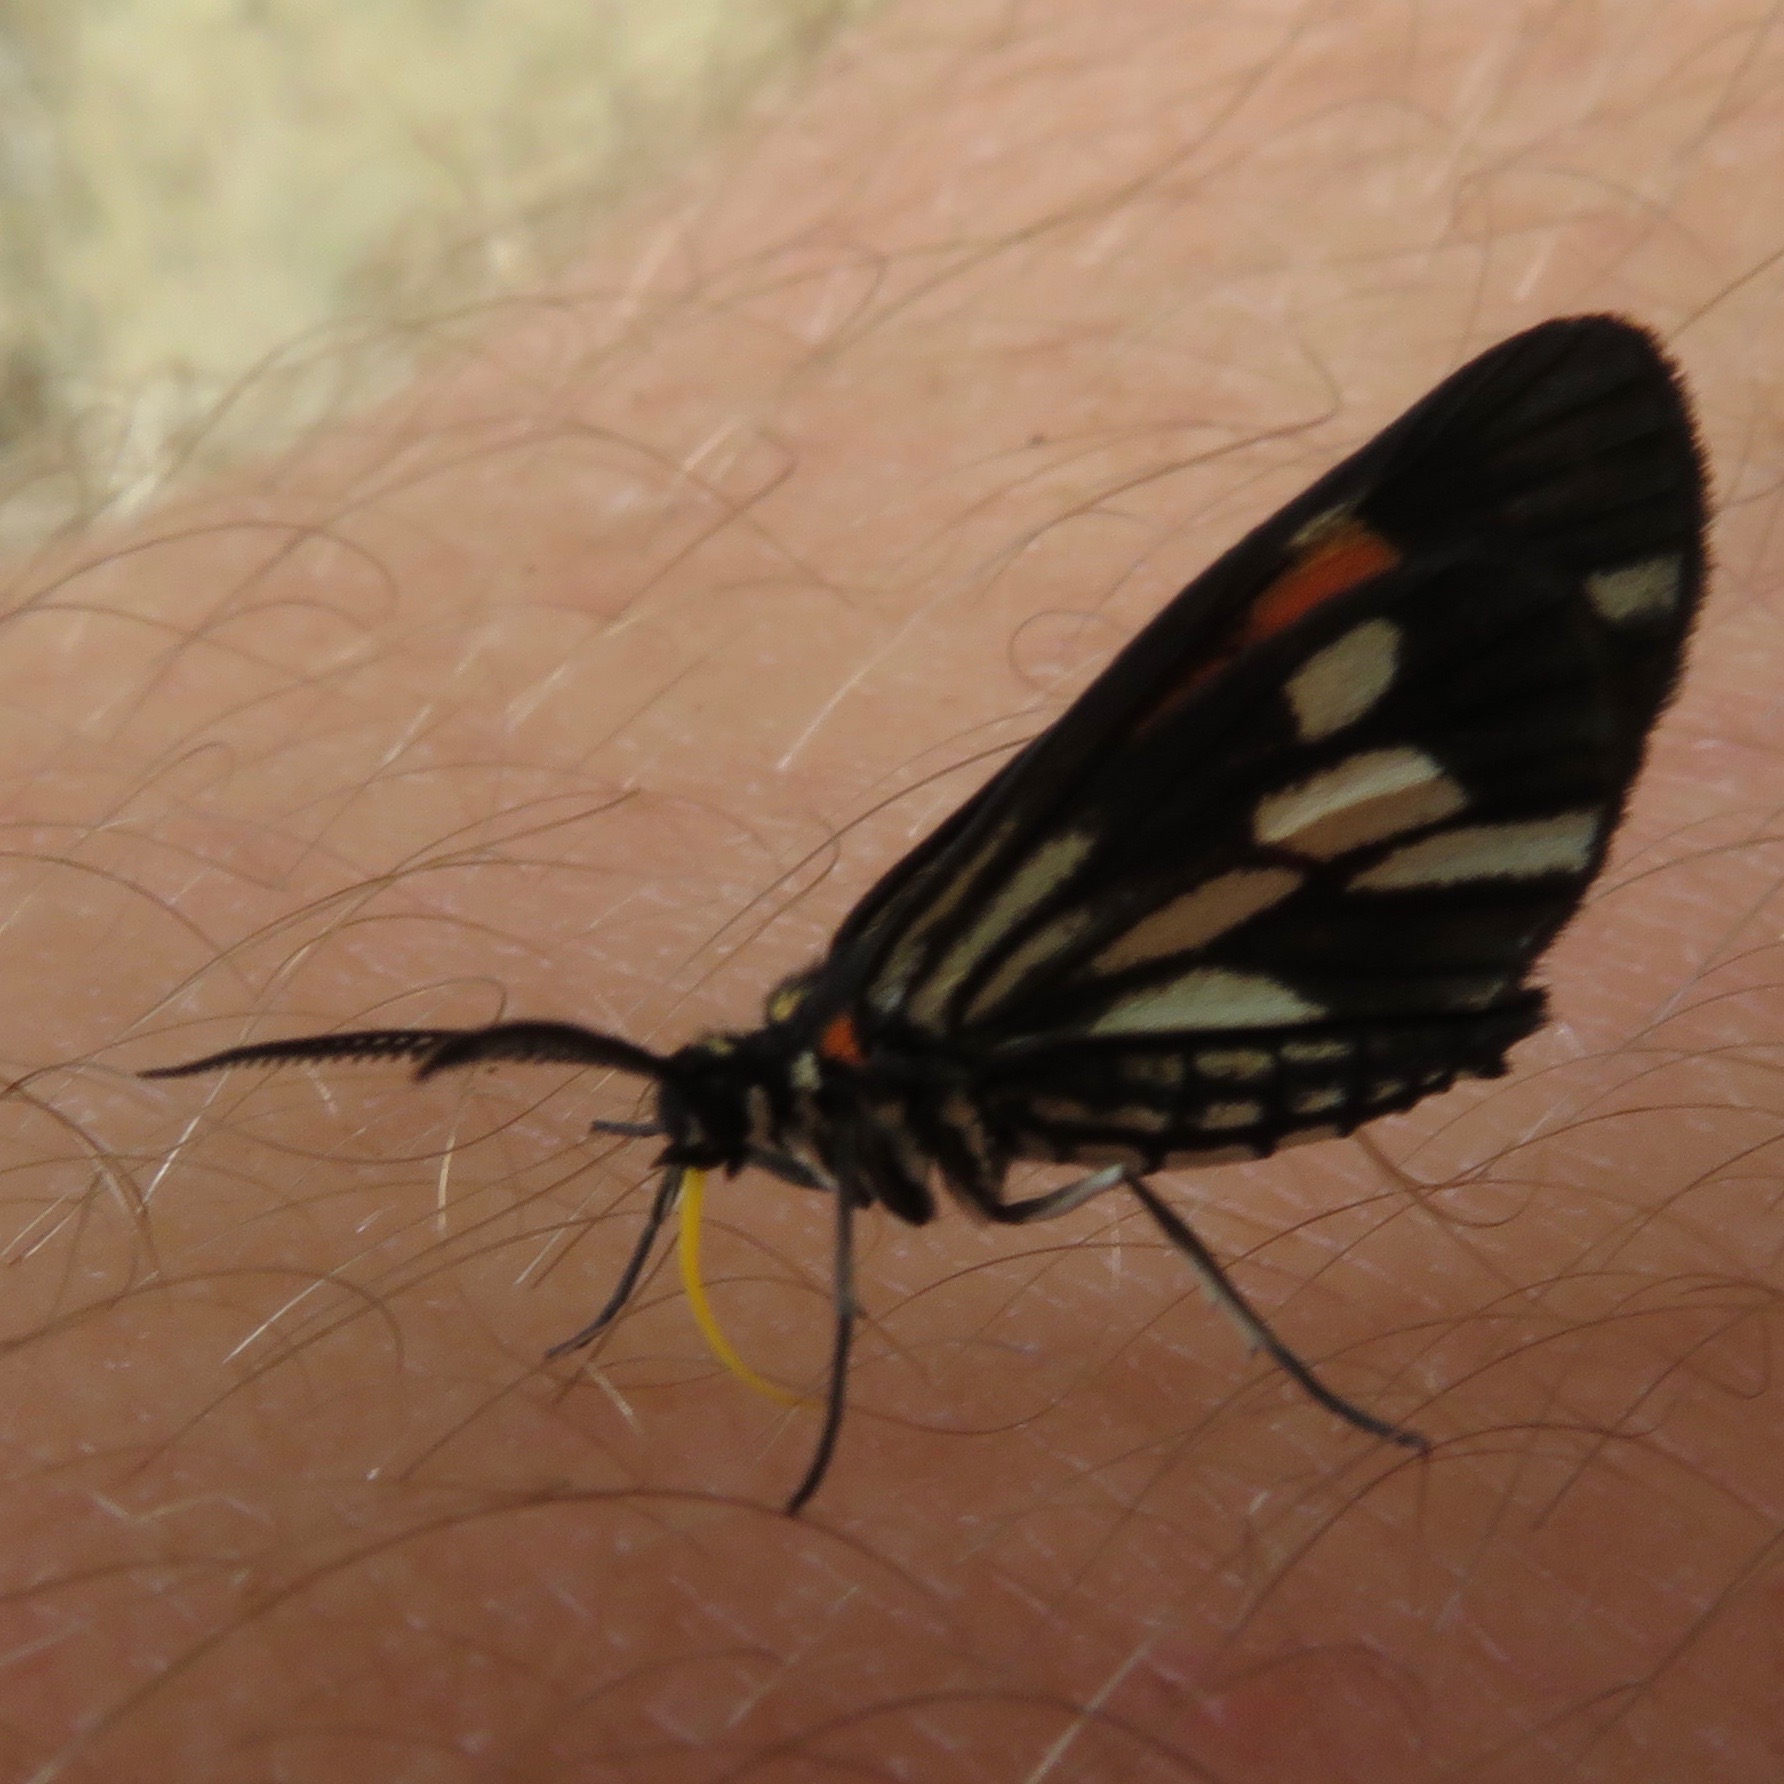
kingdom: Animalia
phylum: Arthropoda
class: Insecta
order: Lepidoptera
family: Geometridae
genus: Drymoea
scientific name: Drymoea
